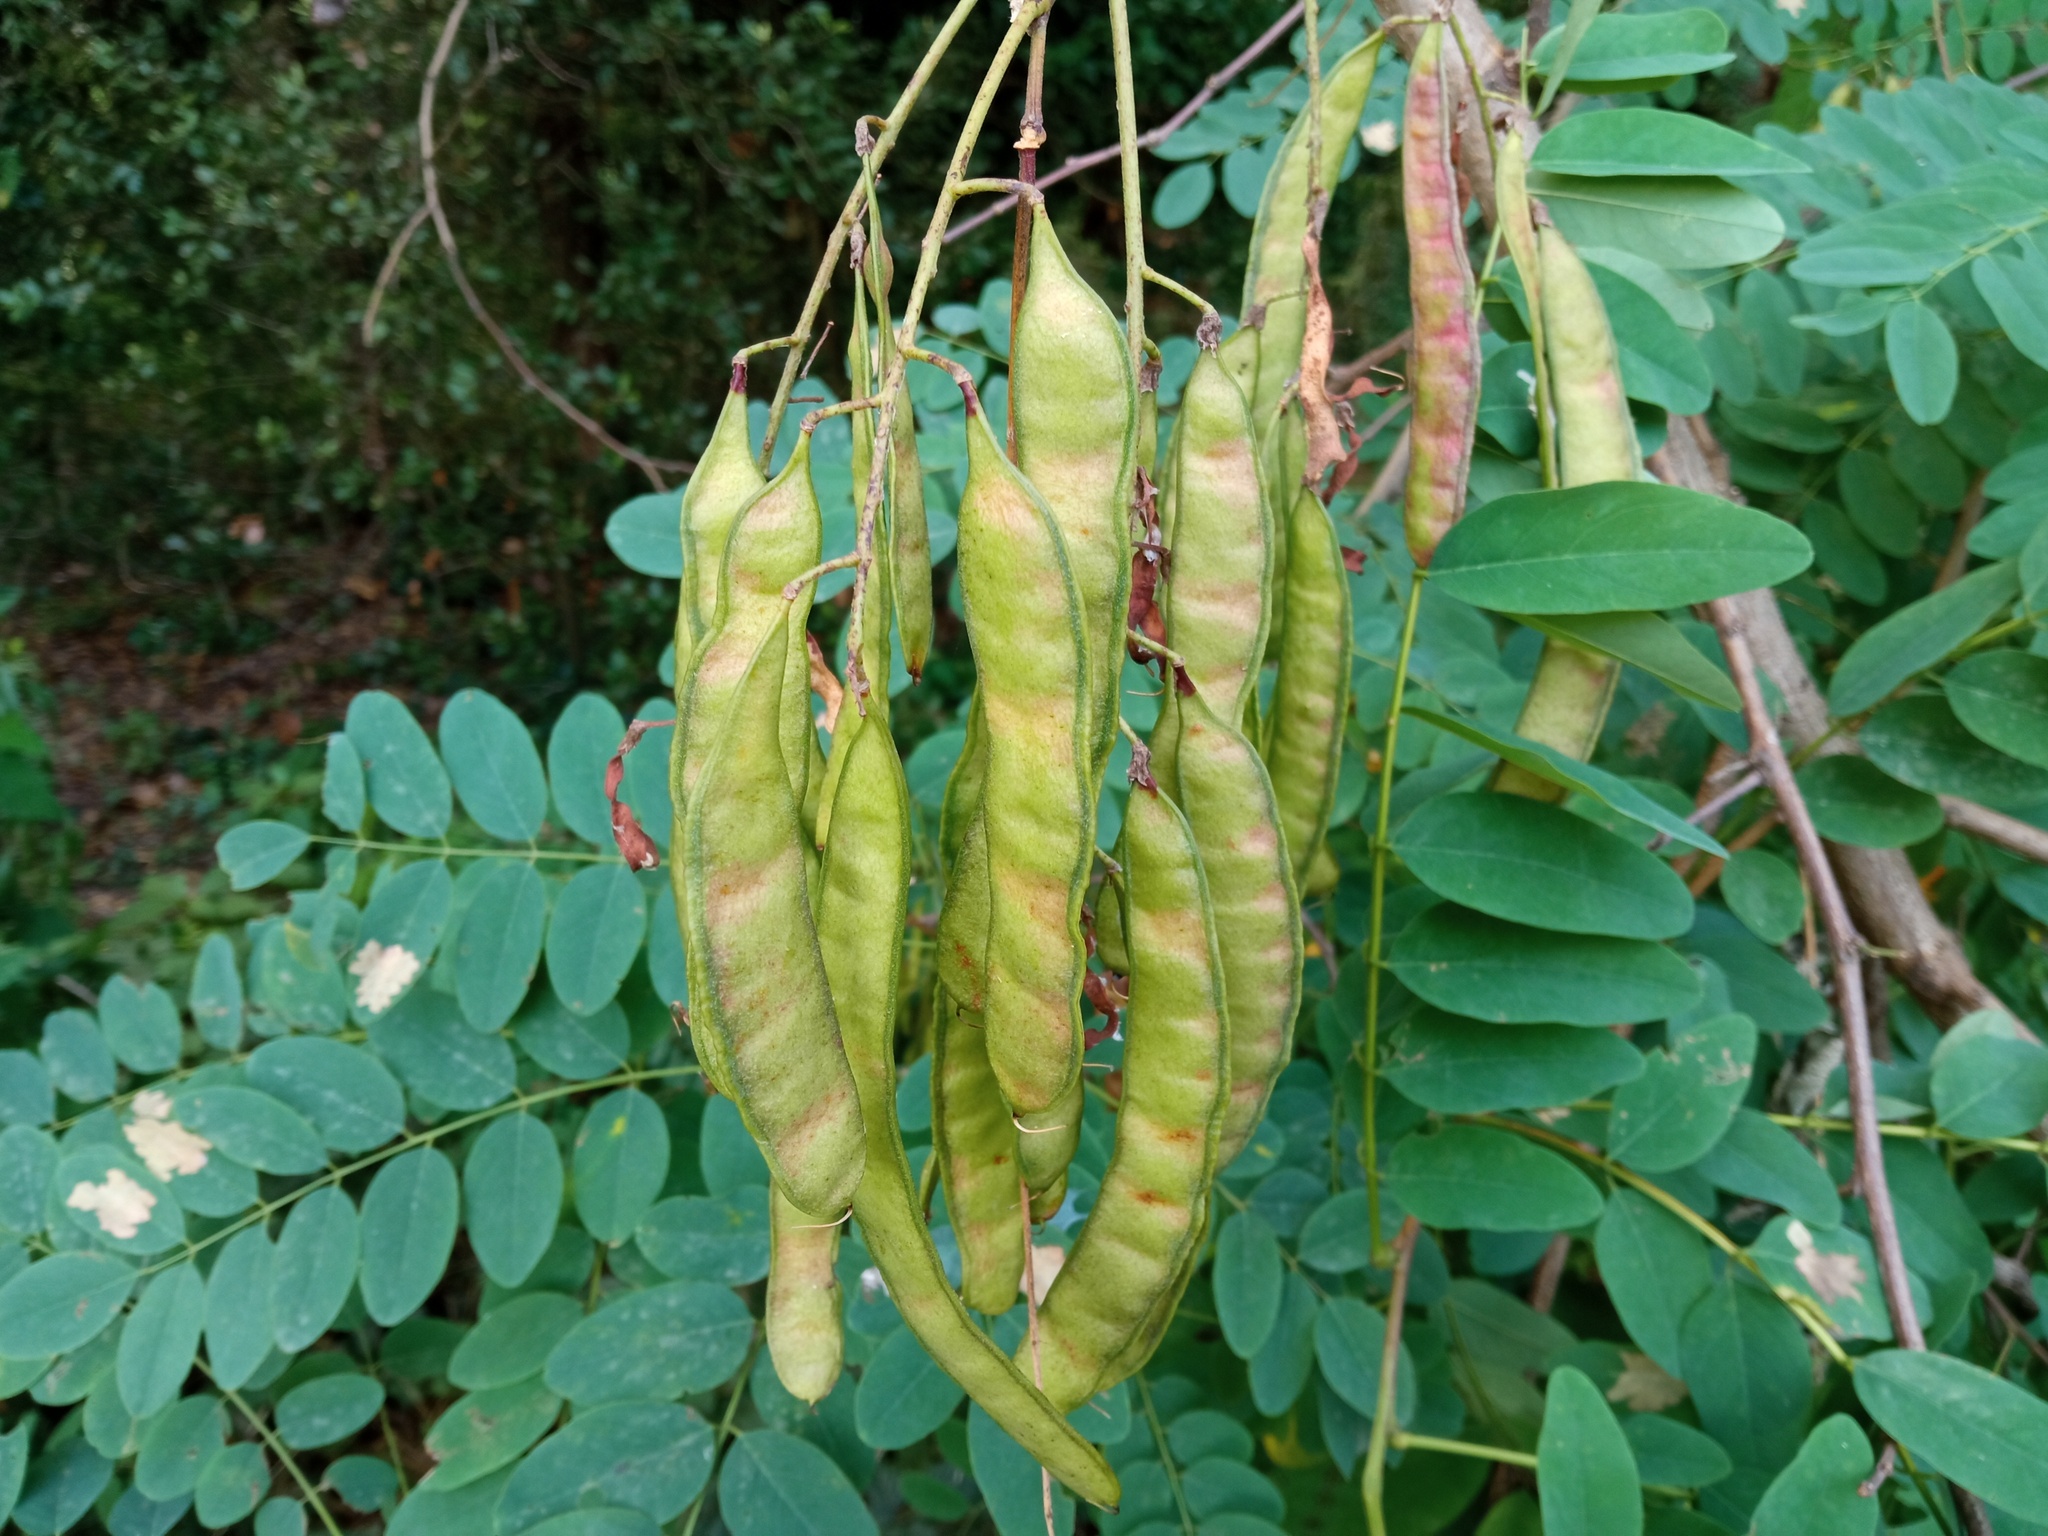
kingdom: Plantae
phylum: Tracheophyta
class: Magnoliopsida
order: Fabales
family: Fabaceae
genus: Robinia
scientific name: Robinia pseudoacacia
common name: Black locust
